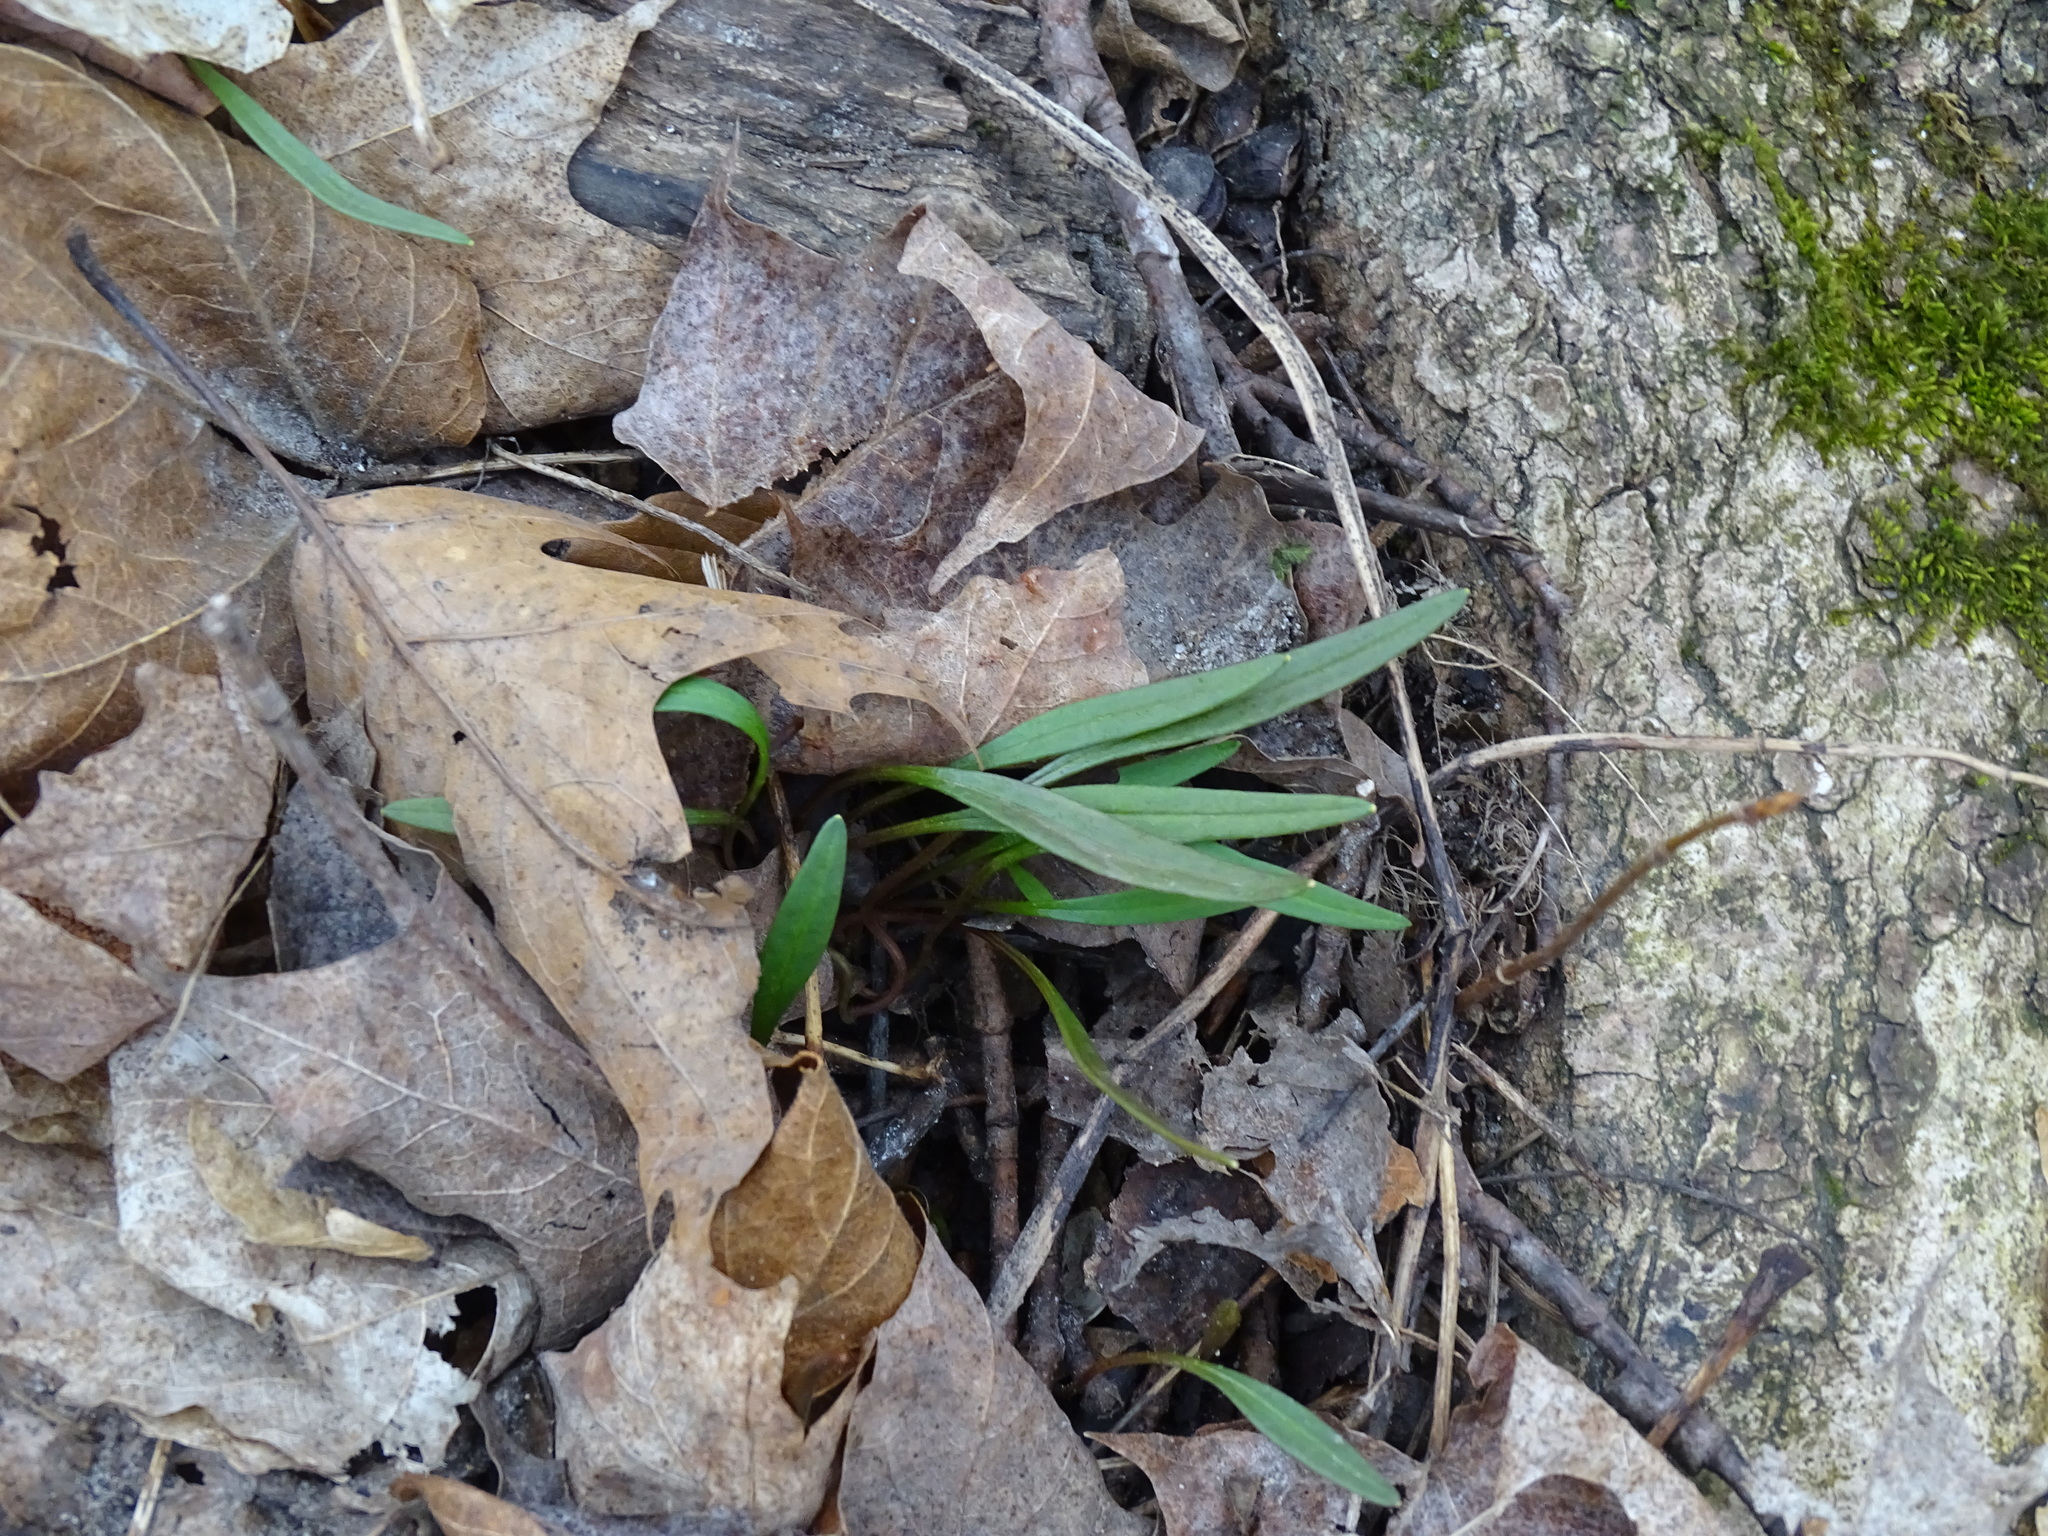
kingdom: Plantae
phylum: Tracheophyta
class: Magnoliopsida
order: Caryophyllales
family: Montiaceae
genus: Claytonia
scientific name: Claytonia virginica
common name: Virginia springbeauty
